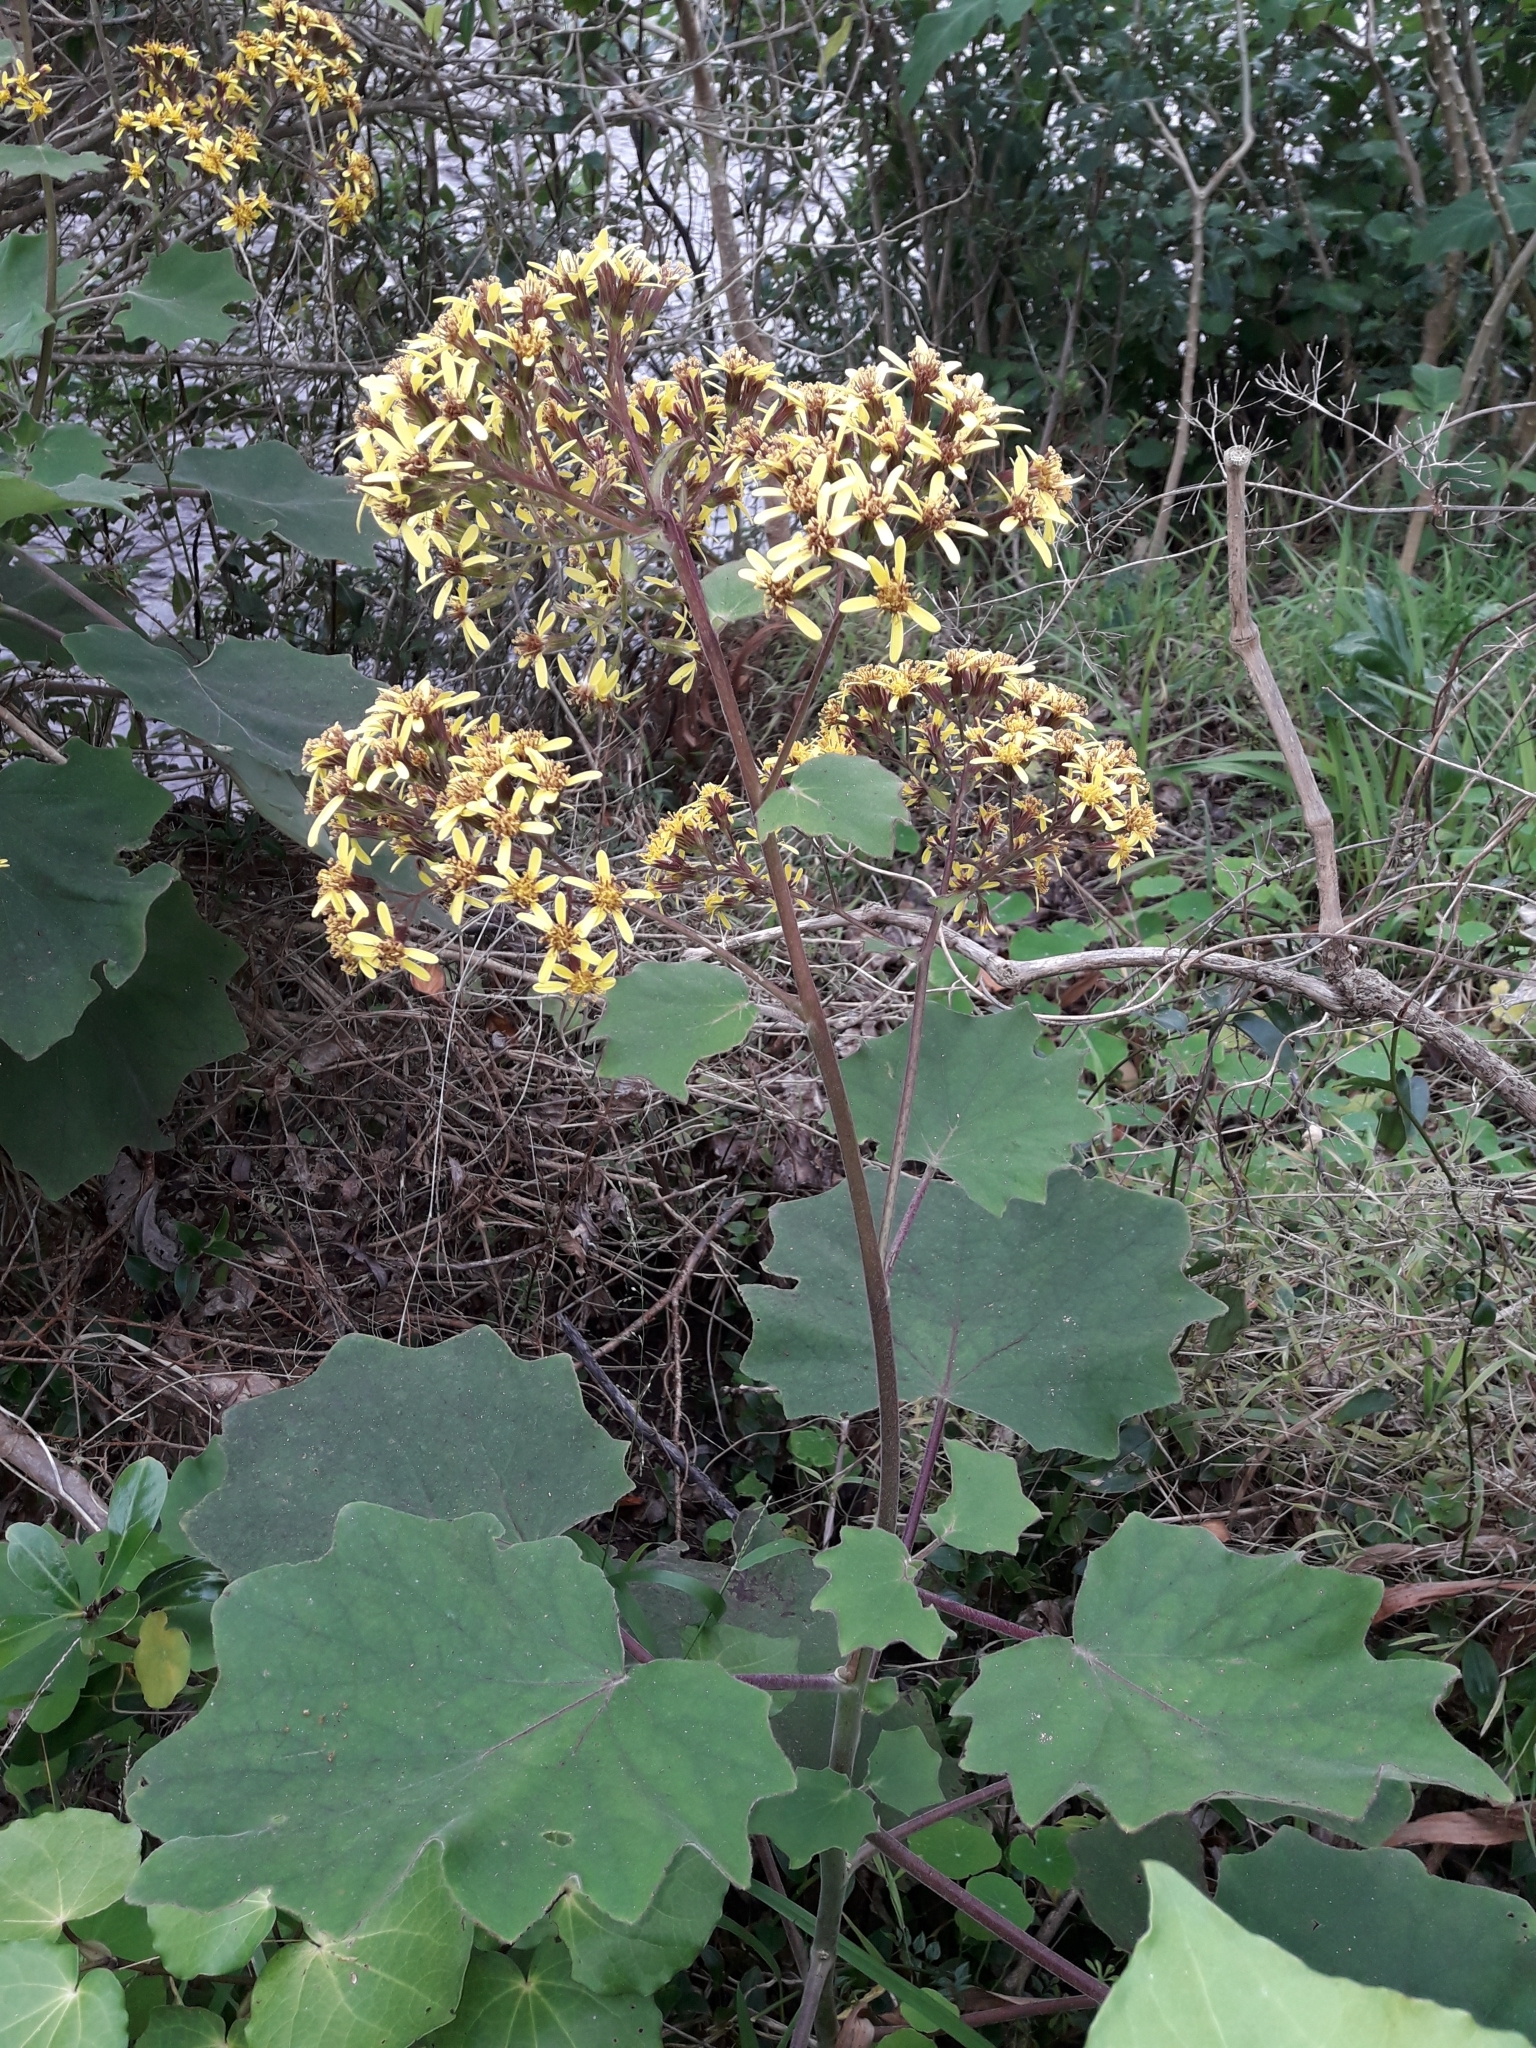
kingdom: Plantae
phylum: Tracheophyta
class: Magnoliopsida
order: Asterales
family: Asteraceae
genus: Roldana
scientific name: Roldana petasitis
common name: California-geranium
